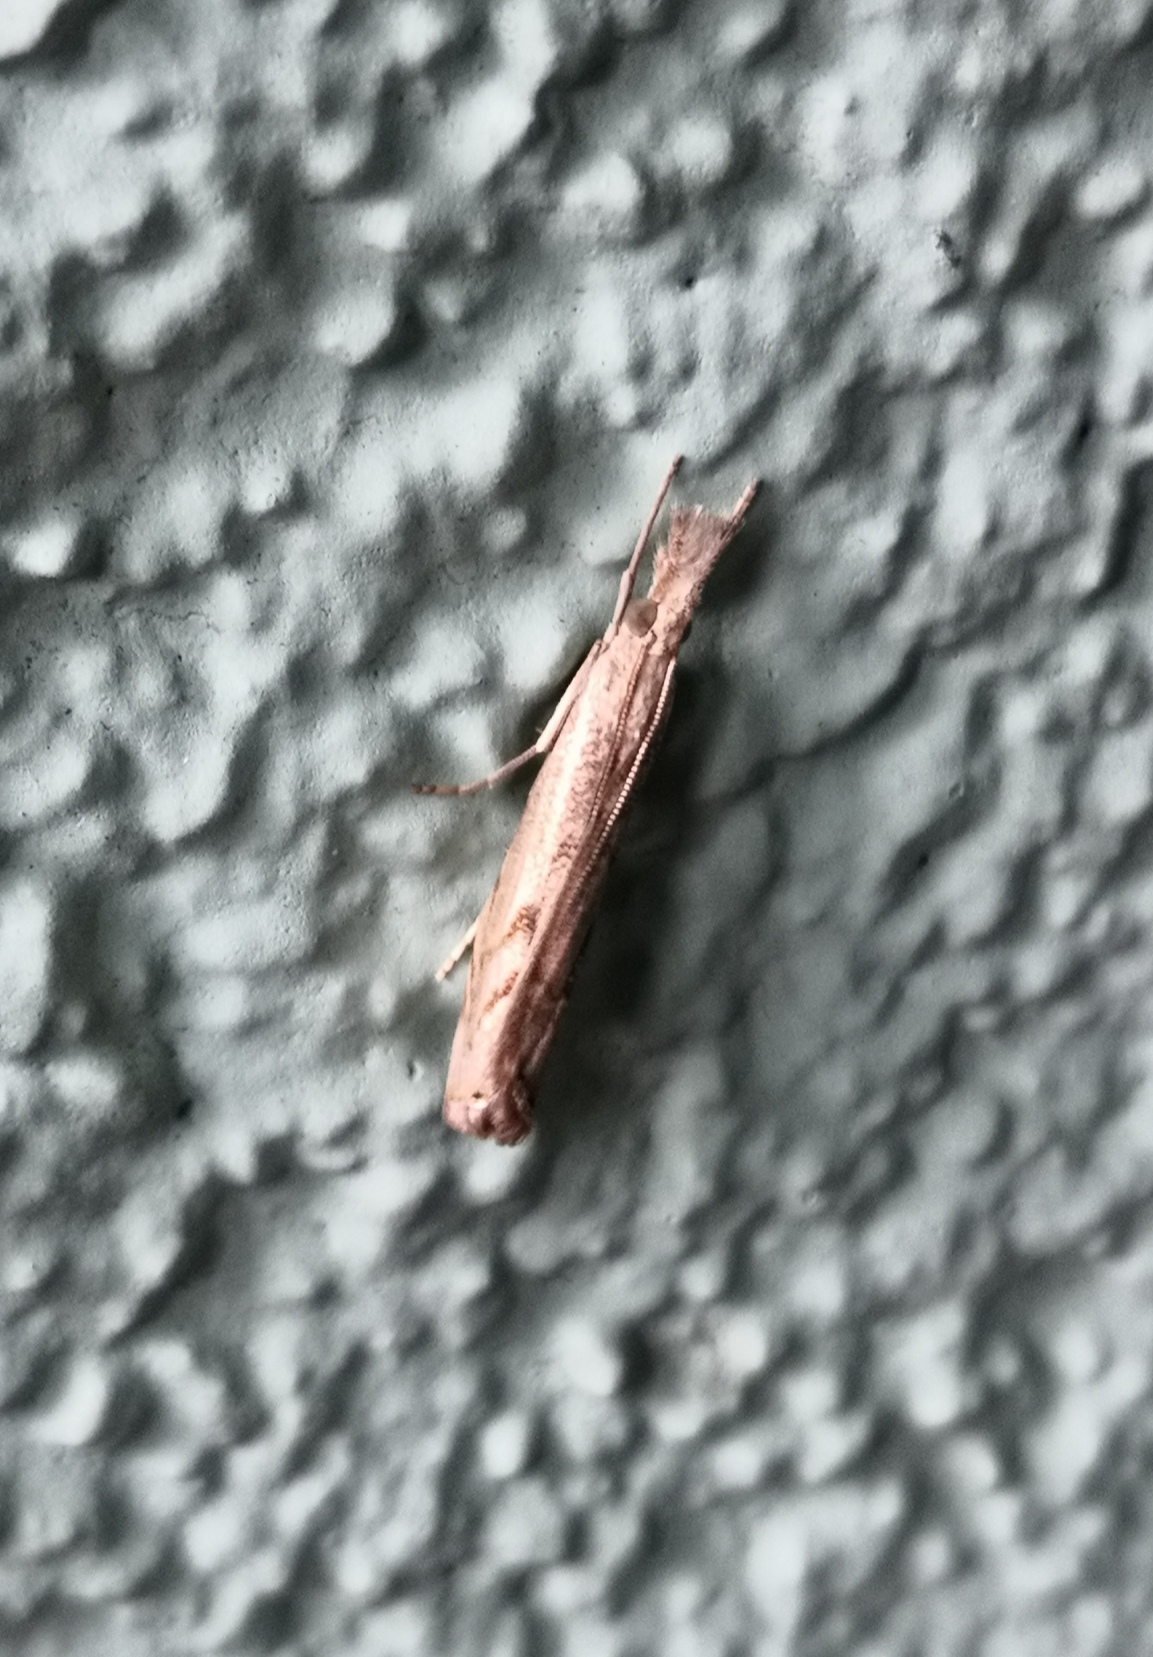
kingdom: Animalia
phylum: Arthropoda
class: Insecta
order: Lepidoptera
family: Crambidae
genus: Agriphila
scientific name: Agriphila geniculea
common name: Elbow-stripe grass-veneer
